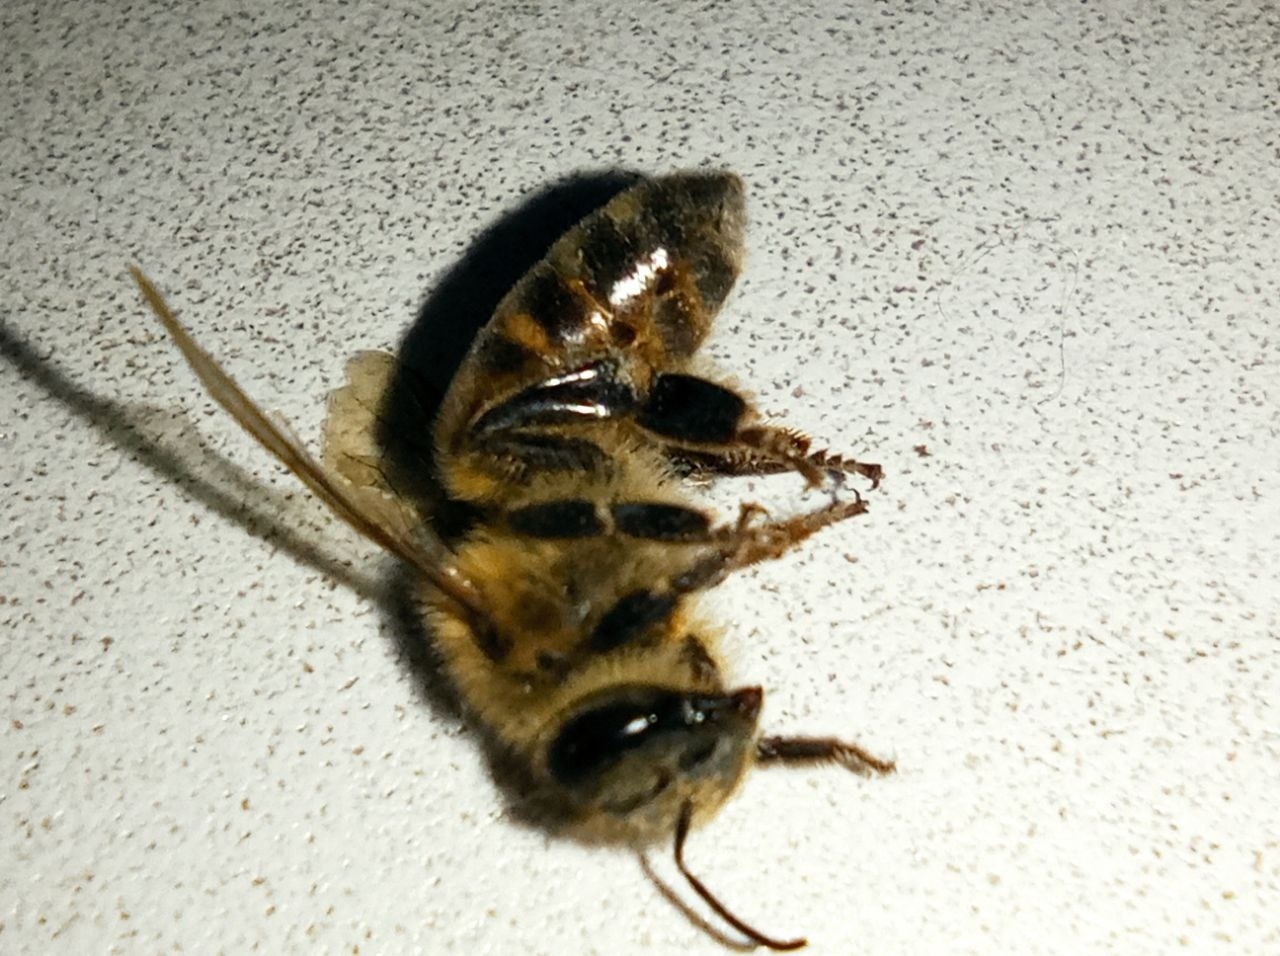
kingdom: Animalia
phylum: Arthropoda
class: Insecta
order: Hymenoptera
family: Apidae
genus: Apis
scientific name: Apis mellifera
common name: Honey bee
